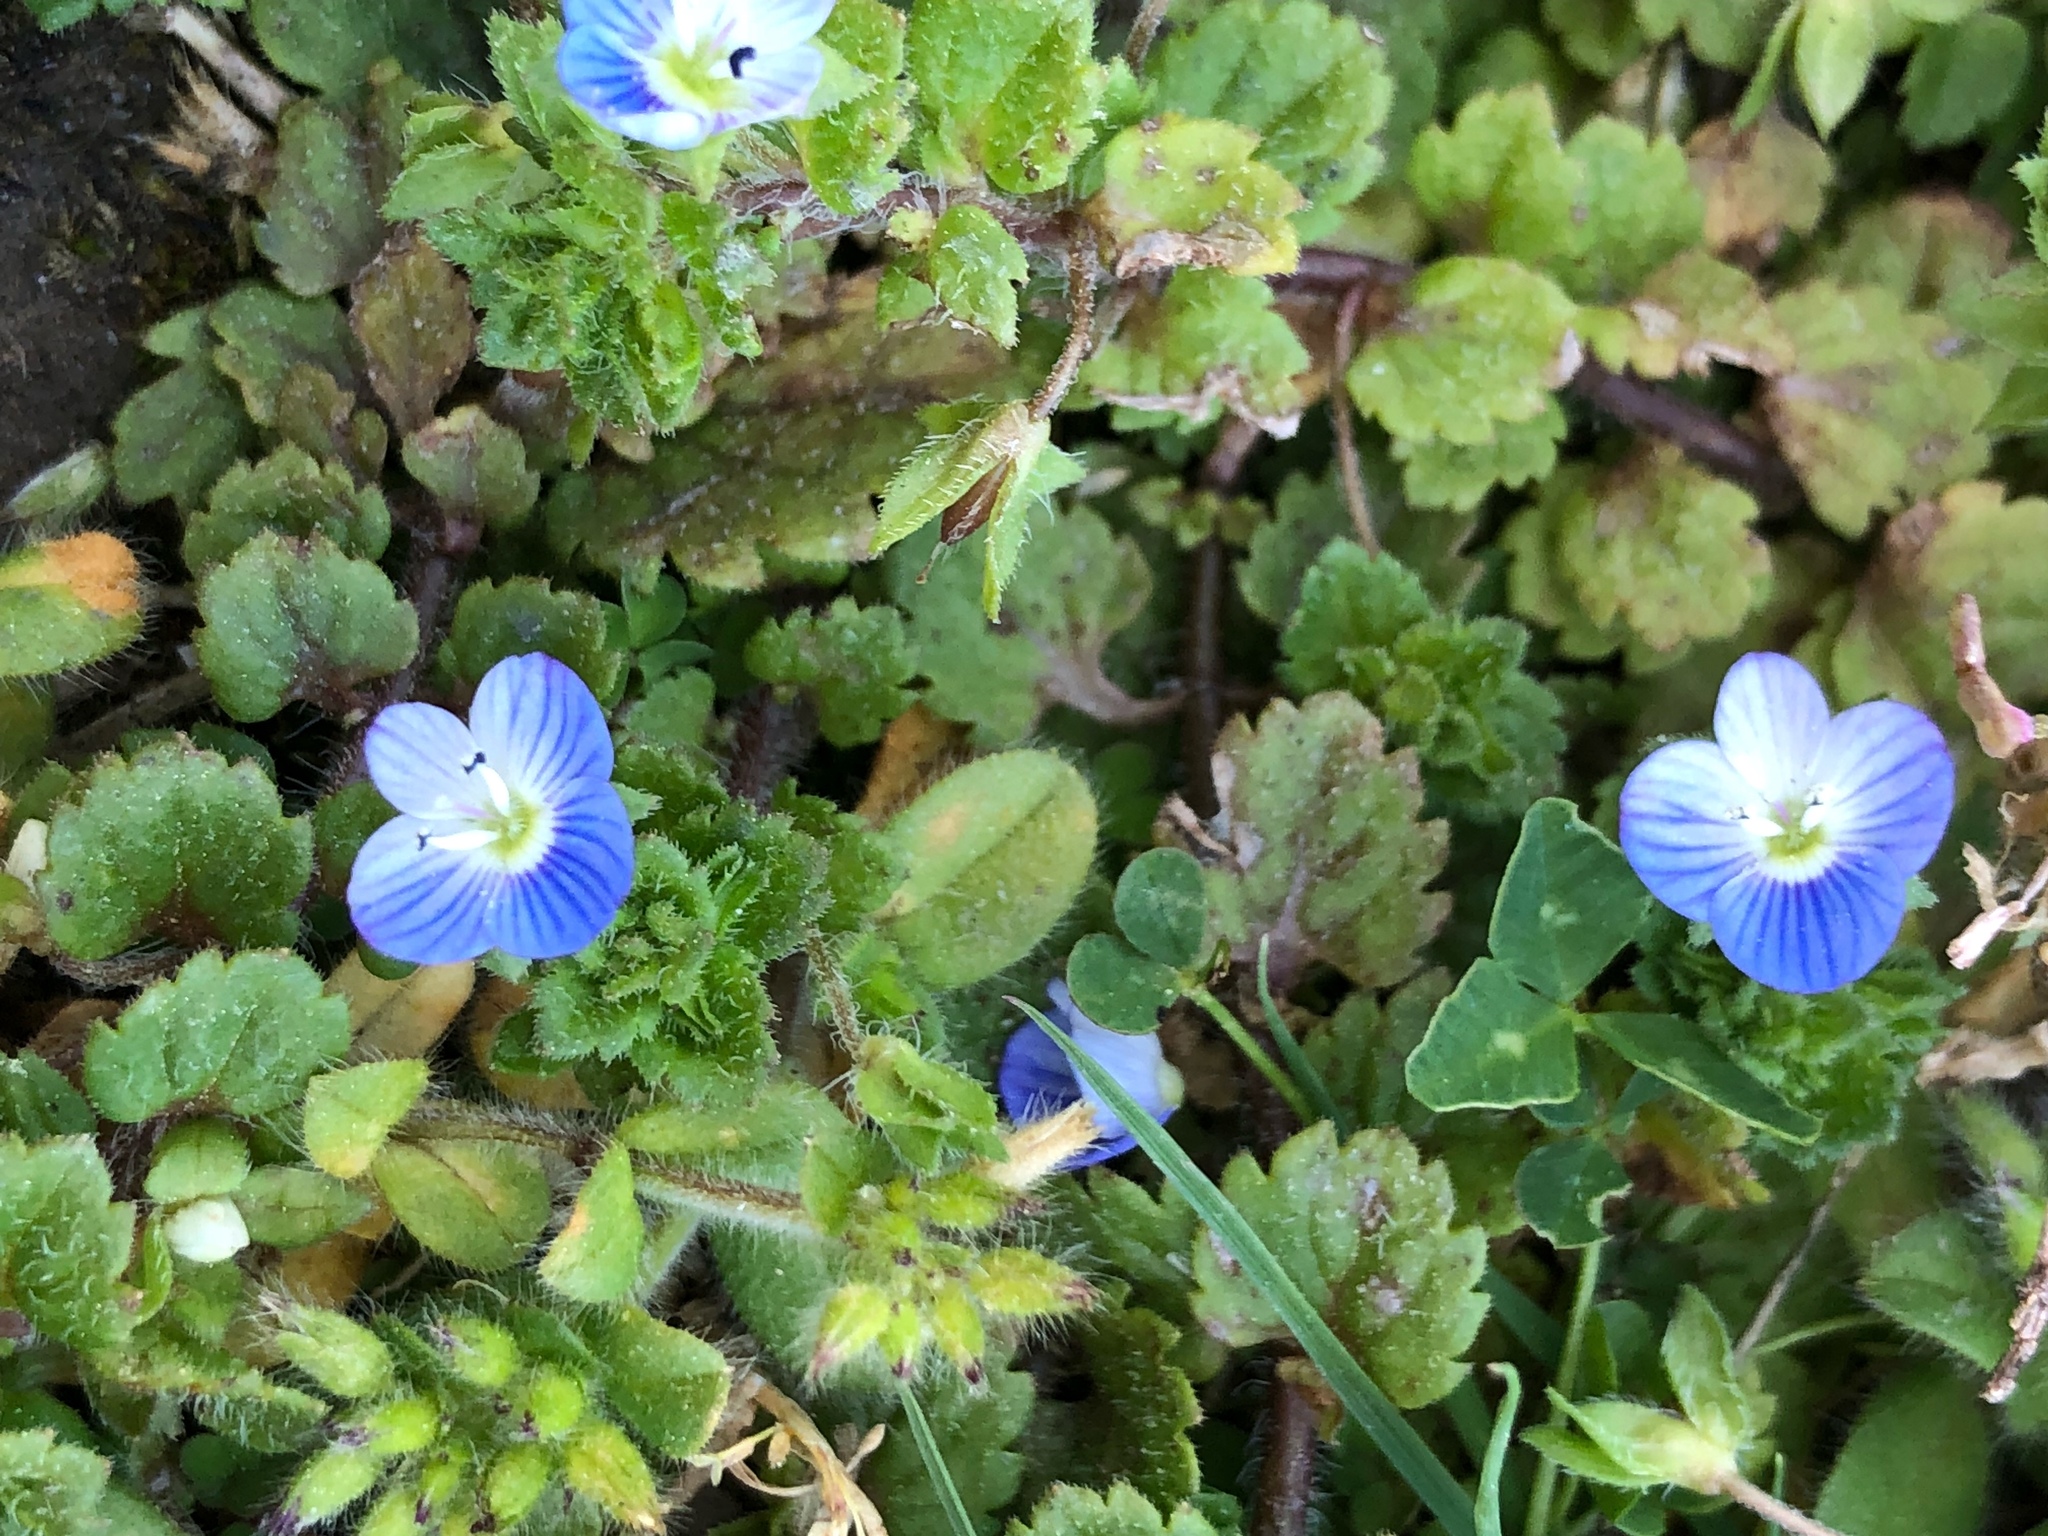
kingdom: Plantae
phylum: Tracheophyta
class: Magnoliopsida
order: Lamiales
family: Plantaginaceae
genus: Veronica
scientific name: Veronica persica
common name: Common field-speedwell
